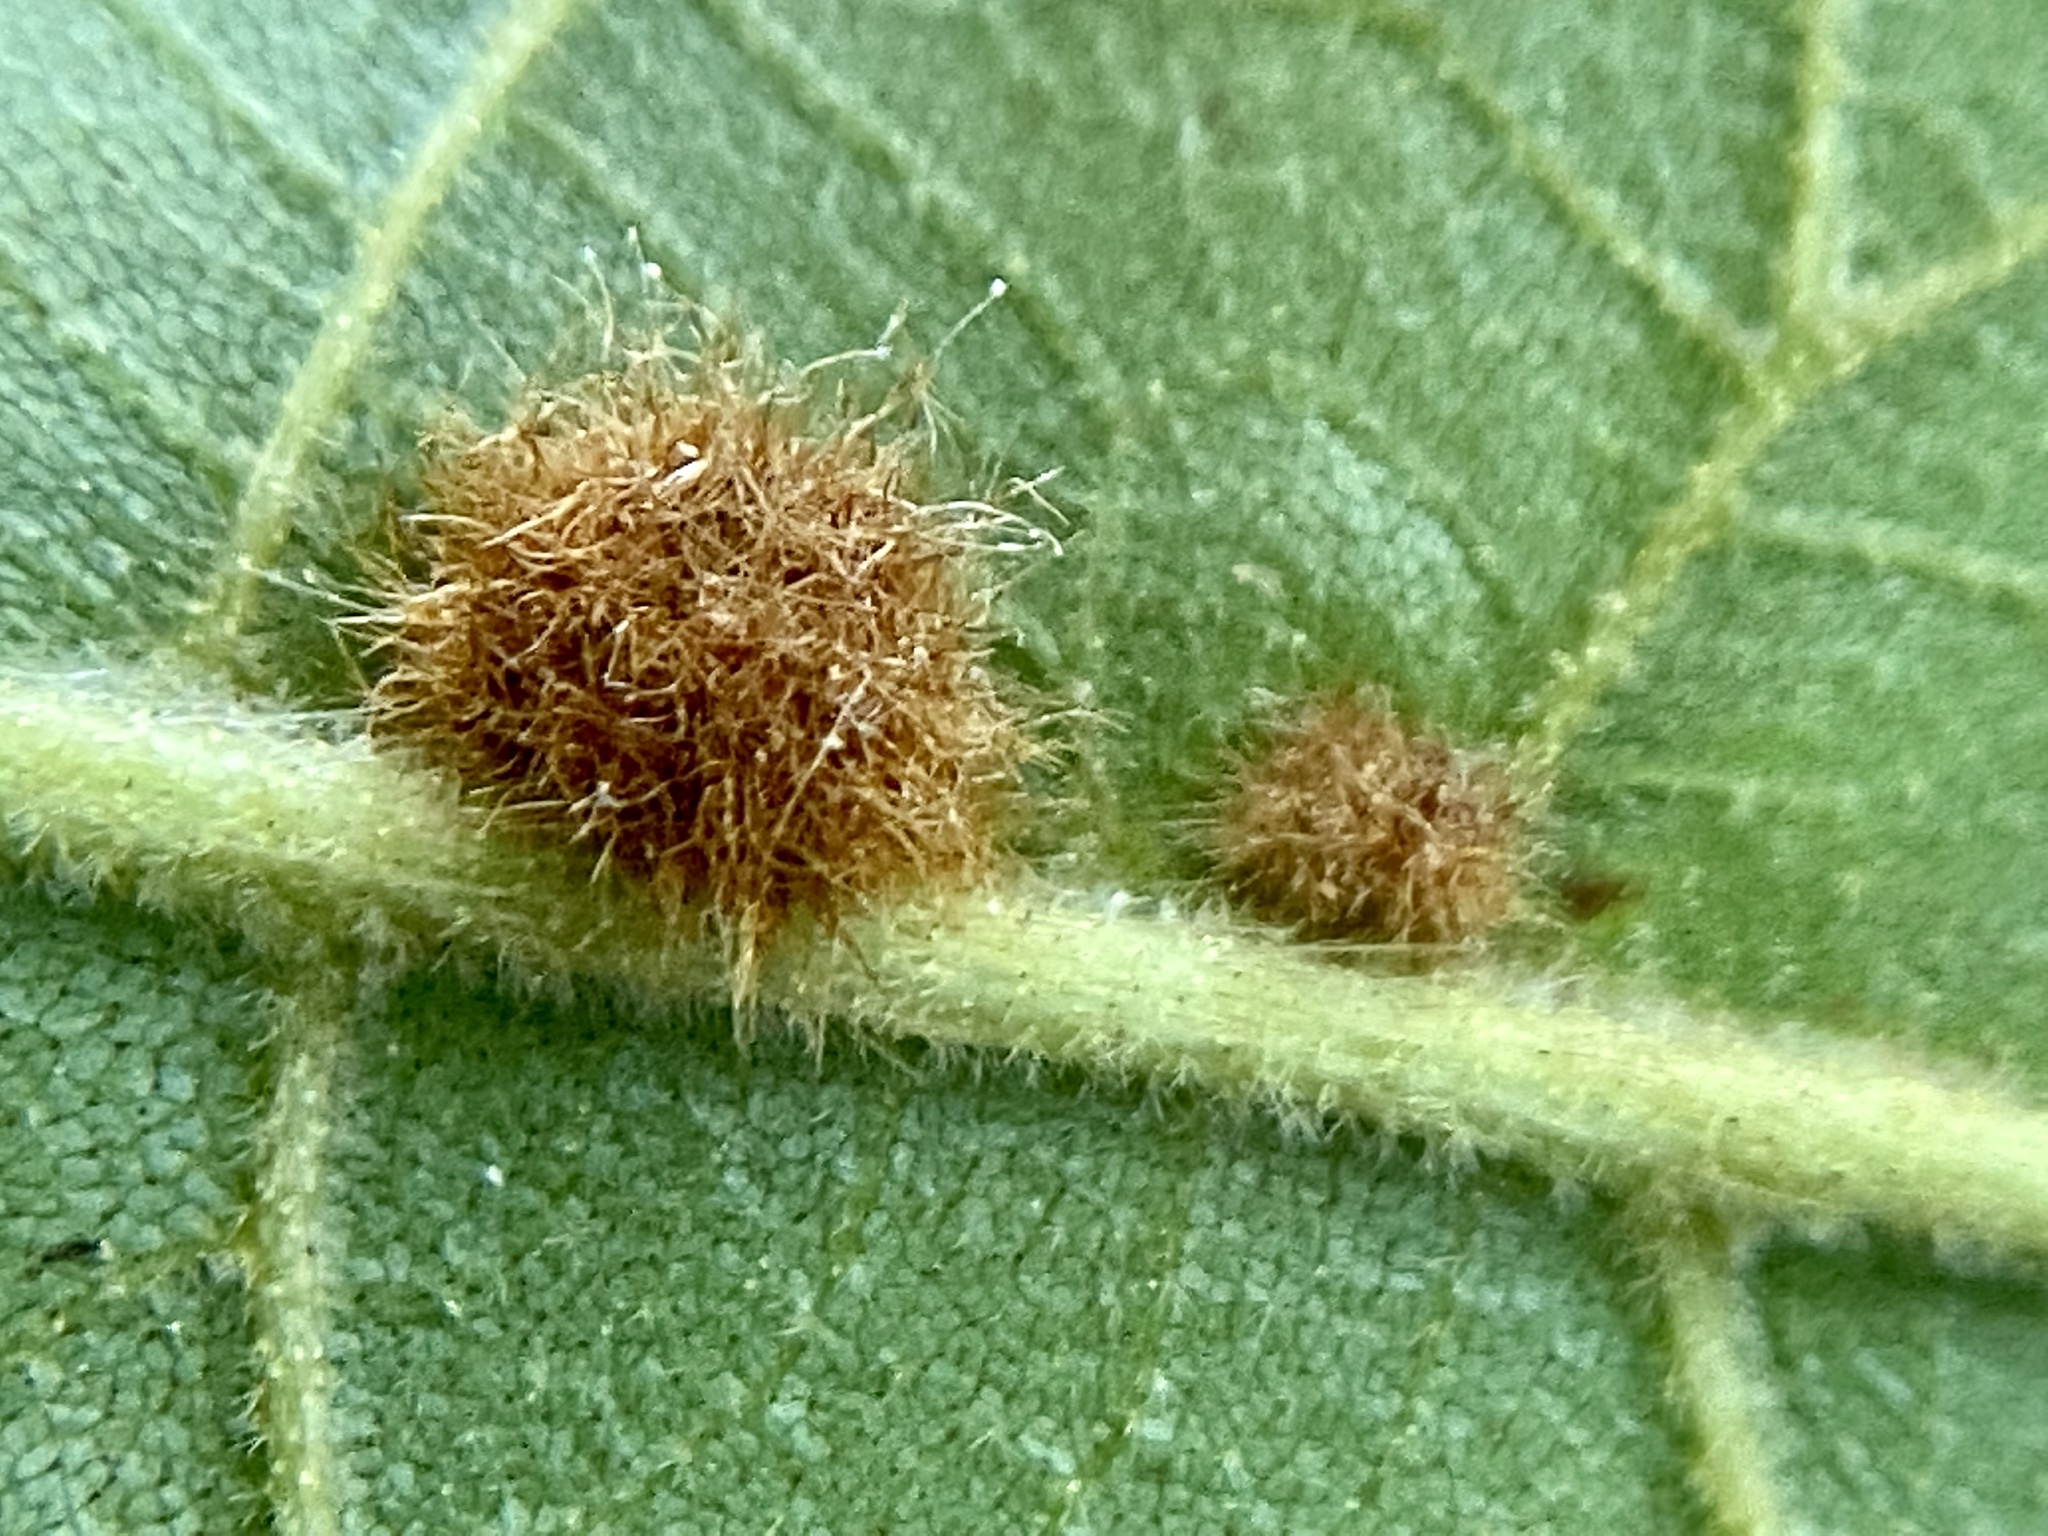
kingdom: Animalia
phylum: Arthropoda
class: Insecta
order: Diptera
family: Cecidomyiidae
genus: Caryomyia
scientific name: Caryomyia aggregata
